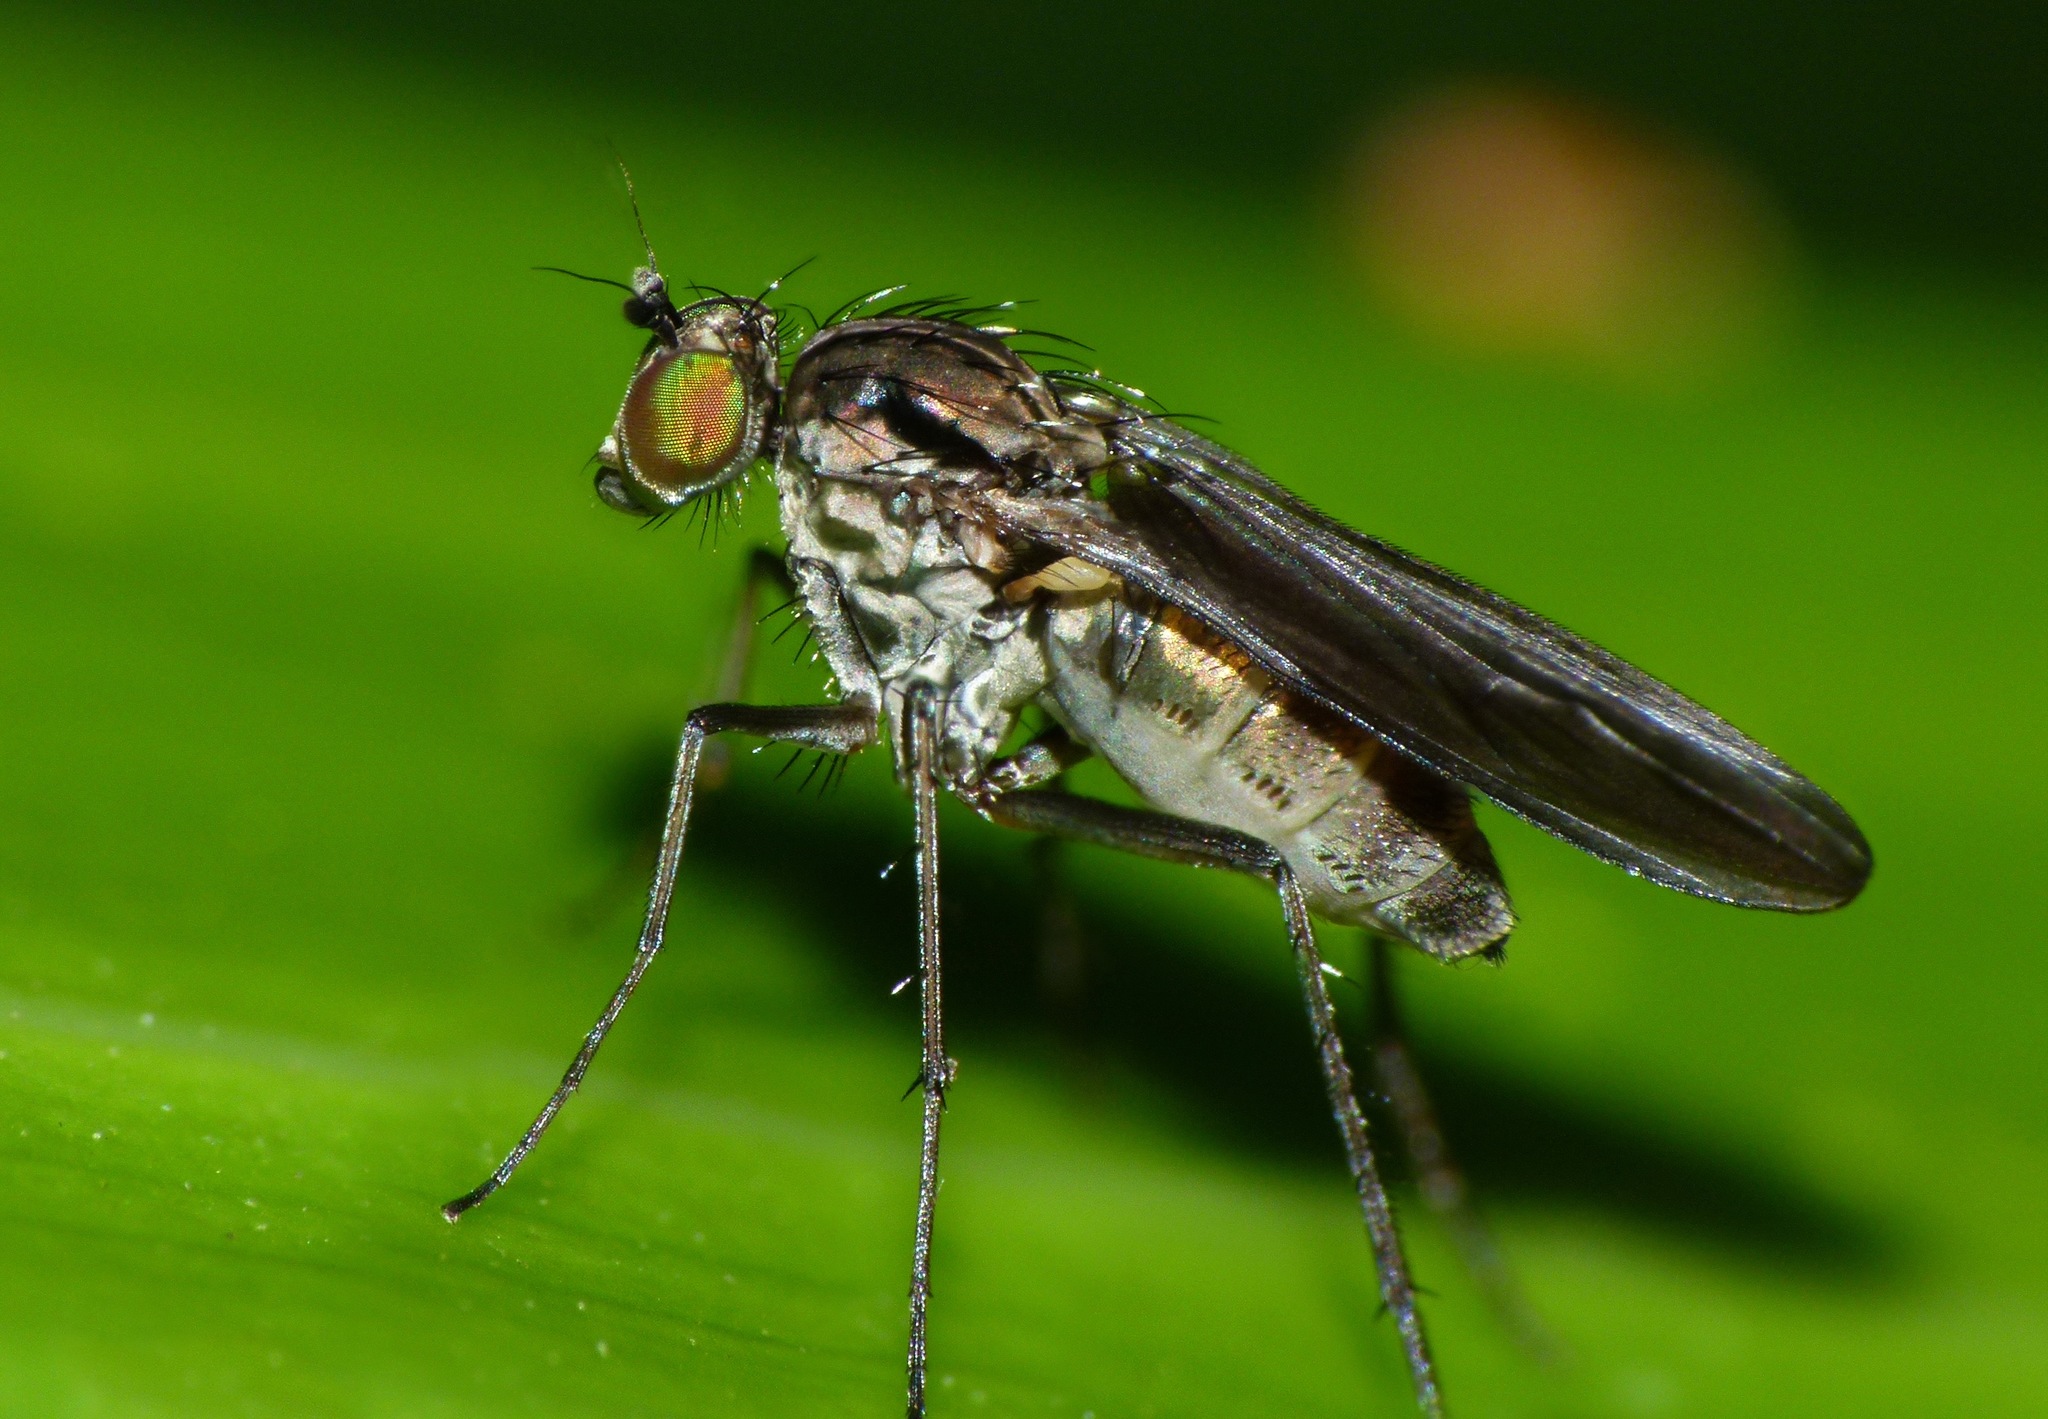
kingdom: Animalia
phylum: Arthropoda
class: Insecta
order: Diptera
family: Dolichopodidae
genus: Scelloides
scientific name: Scelloides ornatipes
